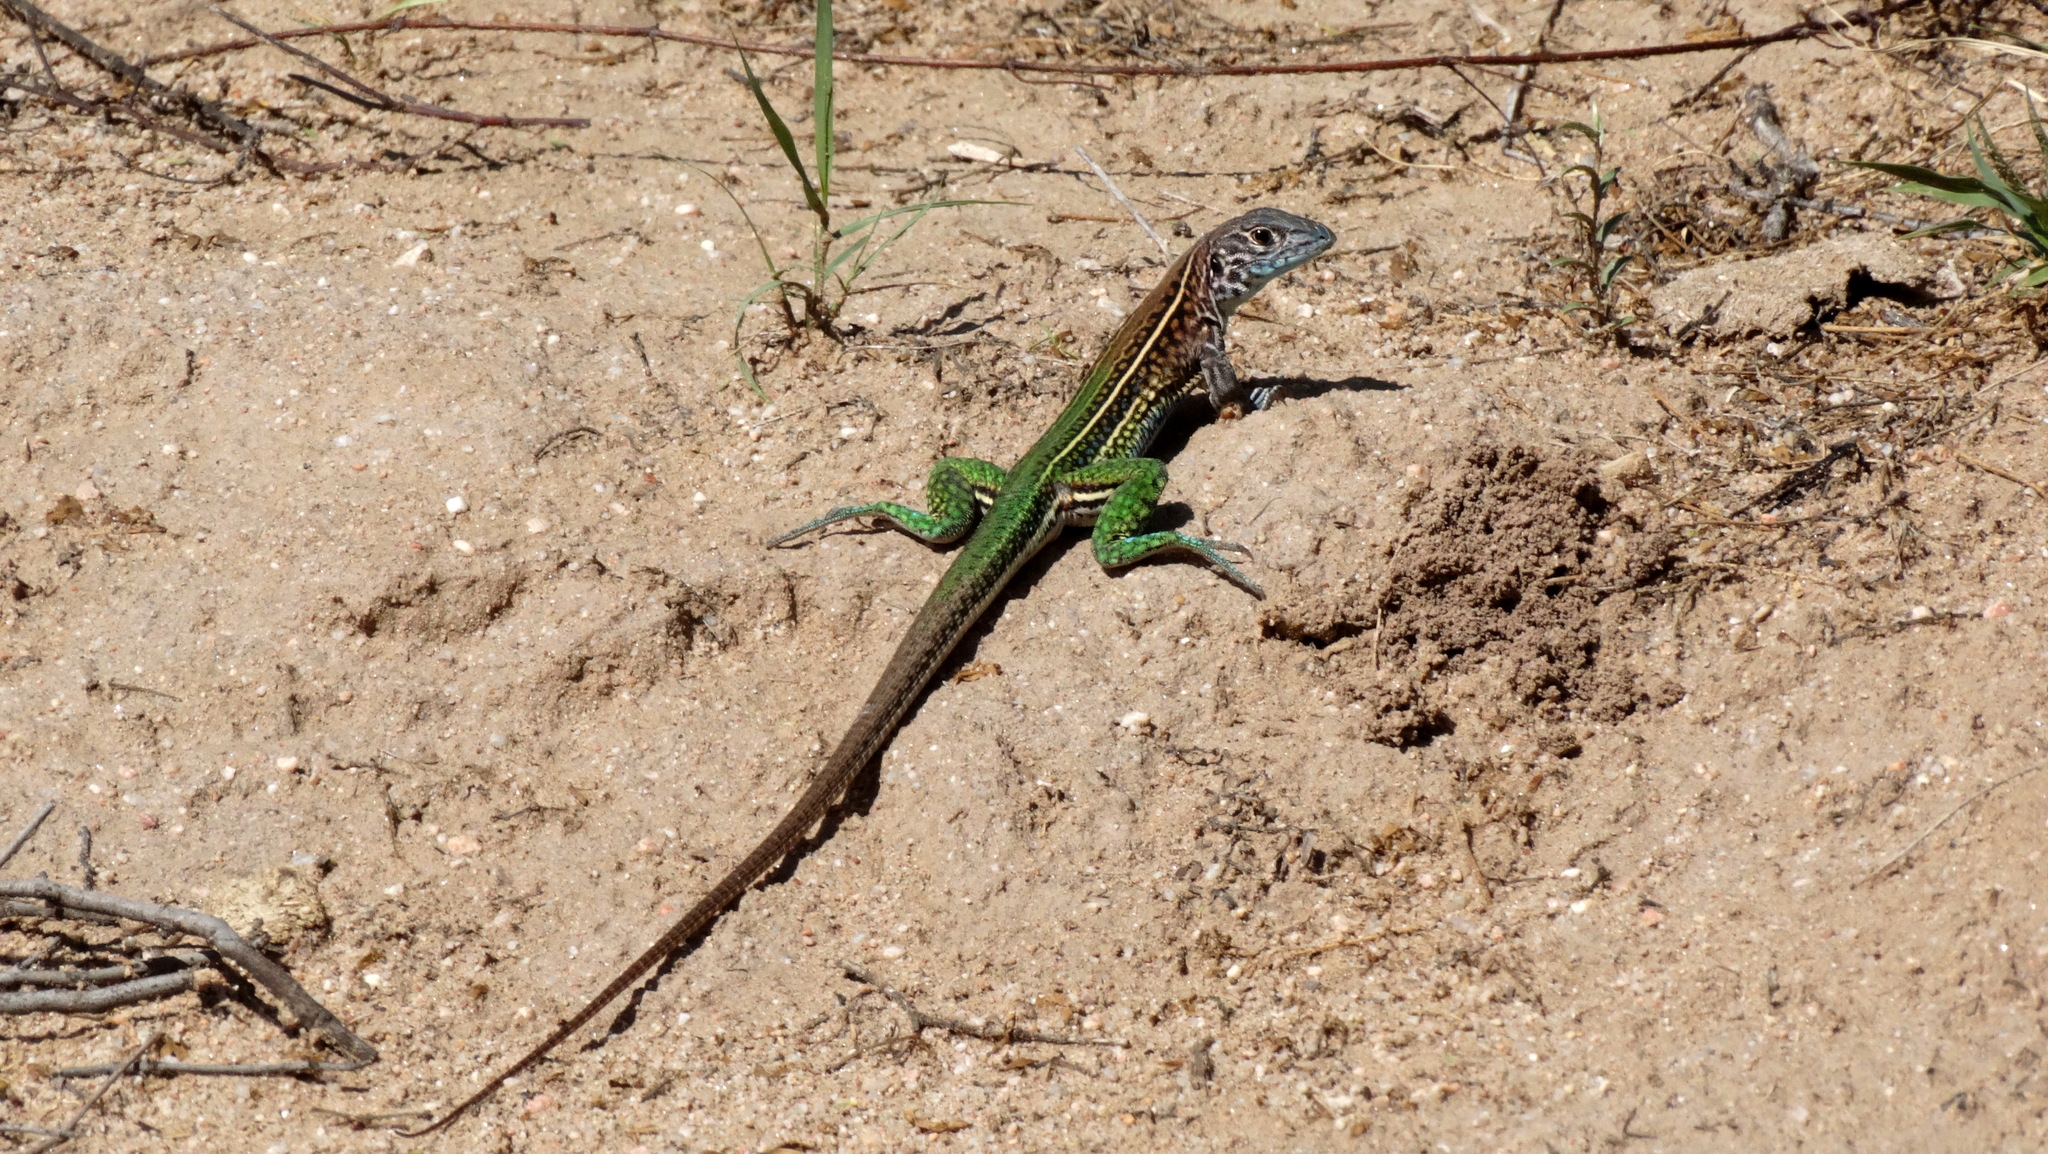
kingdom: Animalia
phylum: Chordata
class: Squamata
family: Teiidae
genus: Teius
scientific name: Teius teyou
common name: Four-toed tegu
